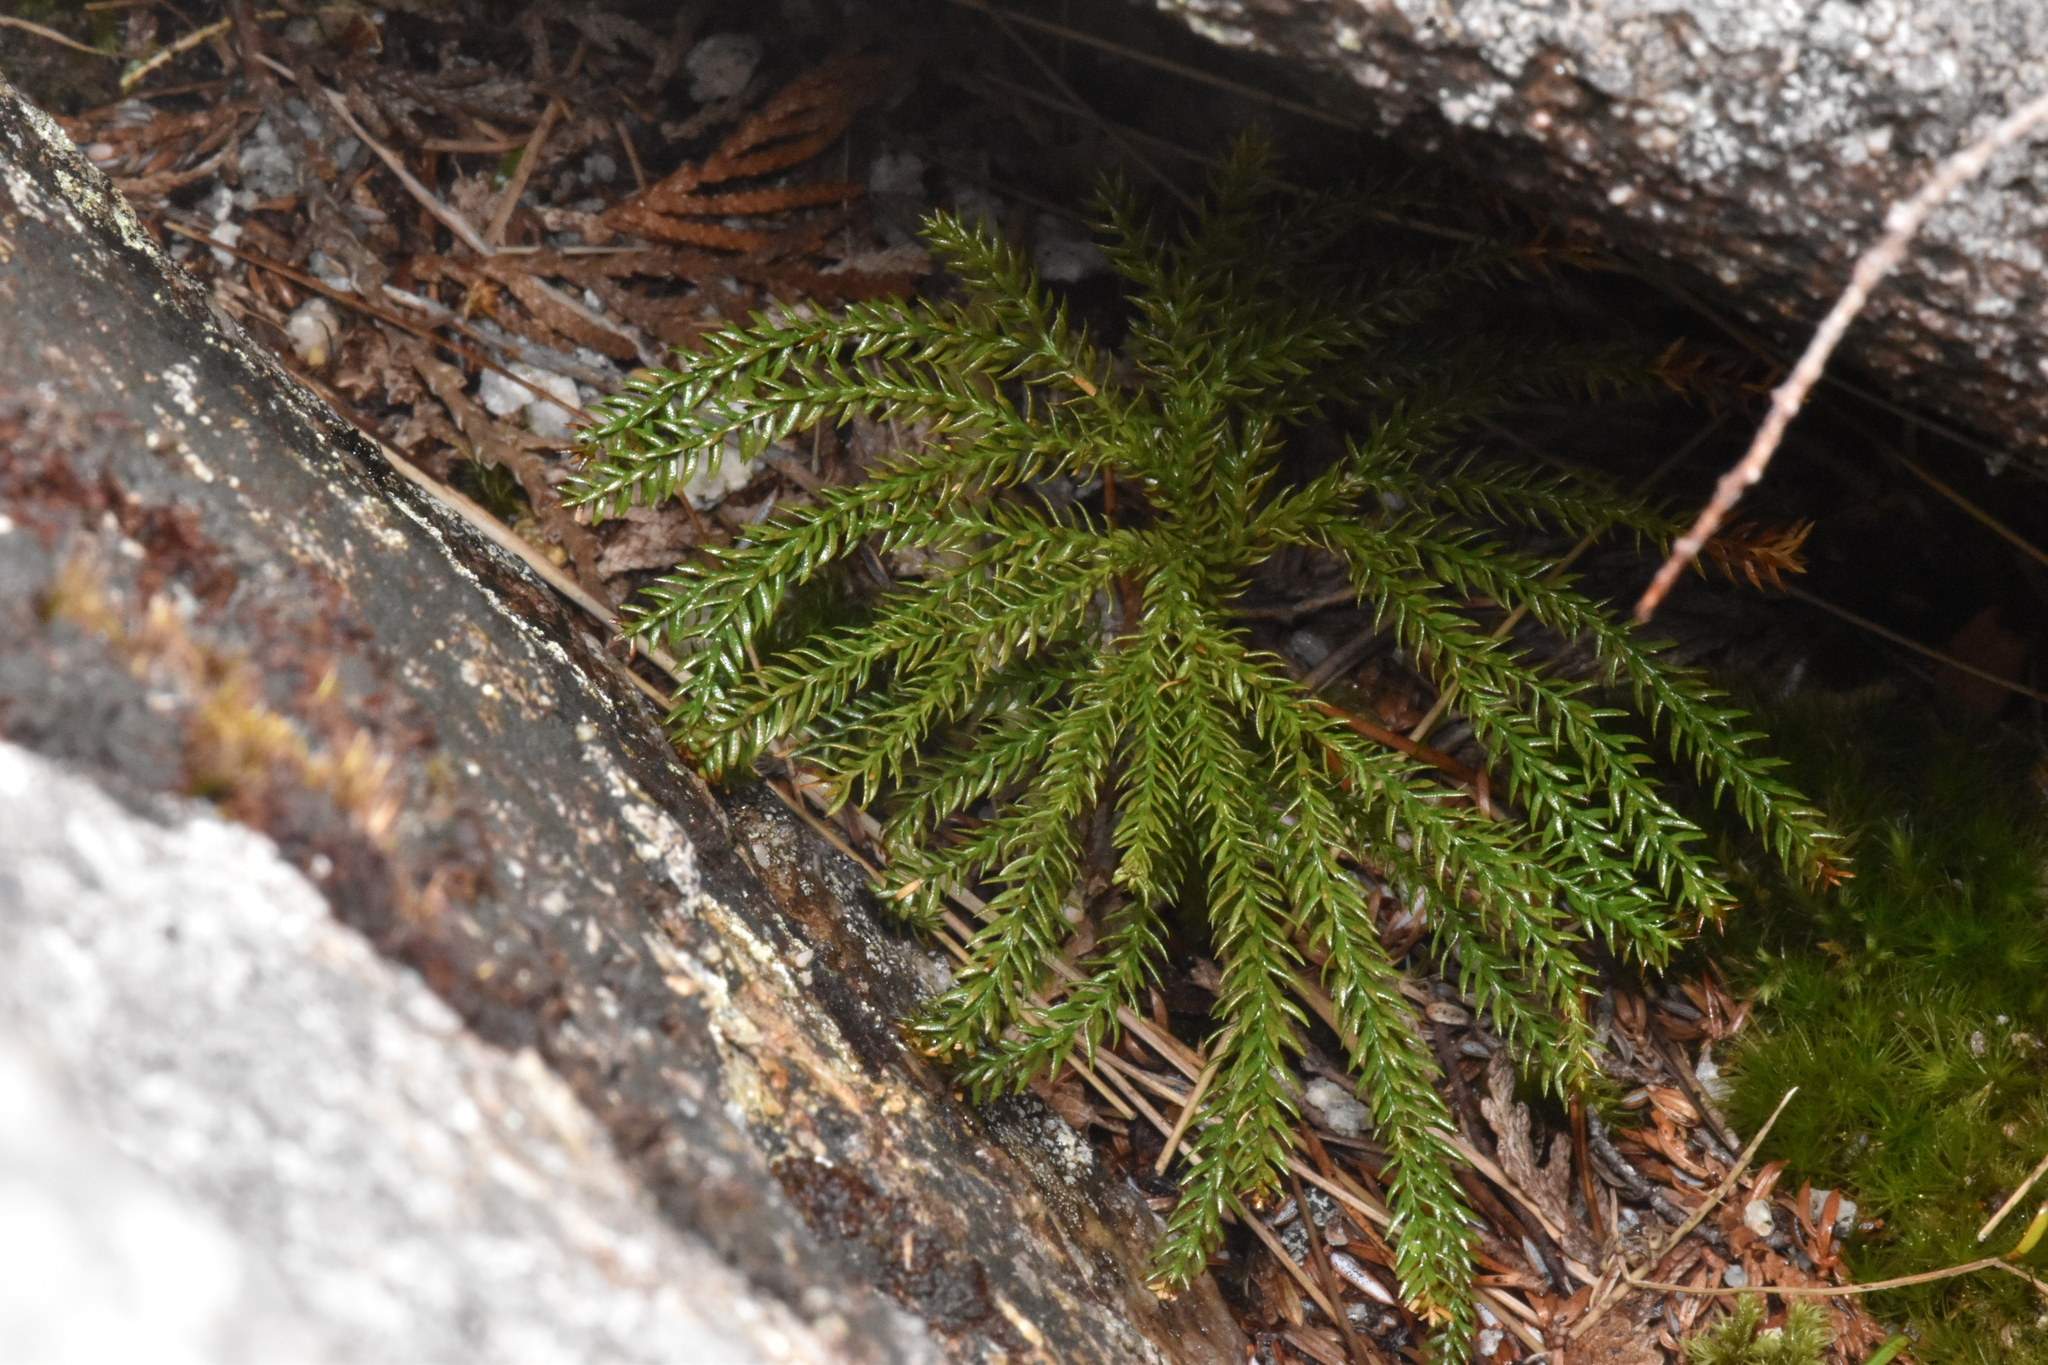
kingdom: Plantae
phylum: Tracheophyta
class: Lycopodiopsida
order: Lycopodiales
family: Lycopodiaceae
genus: Dendrolycopodium
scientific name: Dendrolycopodium dendroideum
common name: Northern tree-clubmoss
